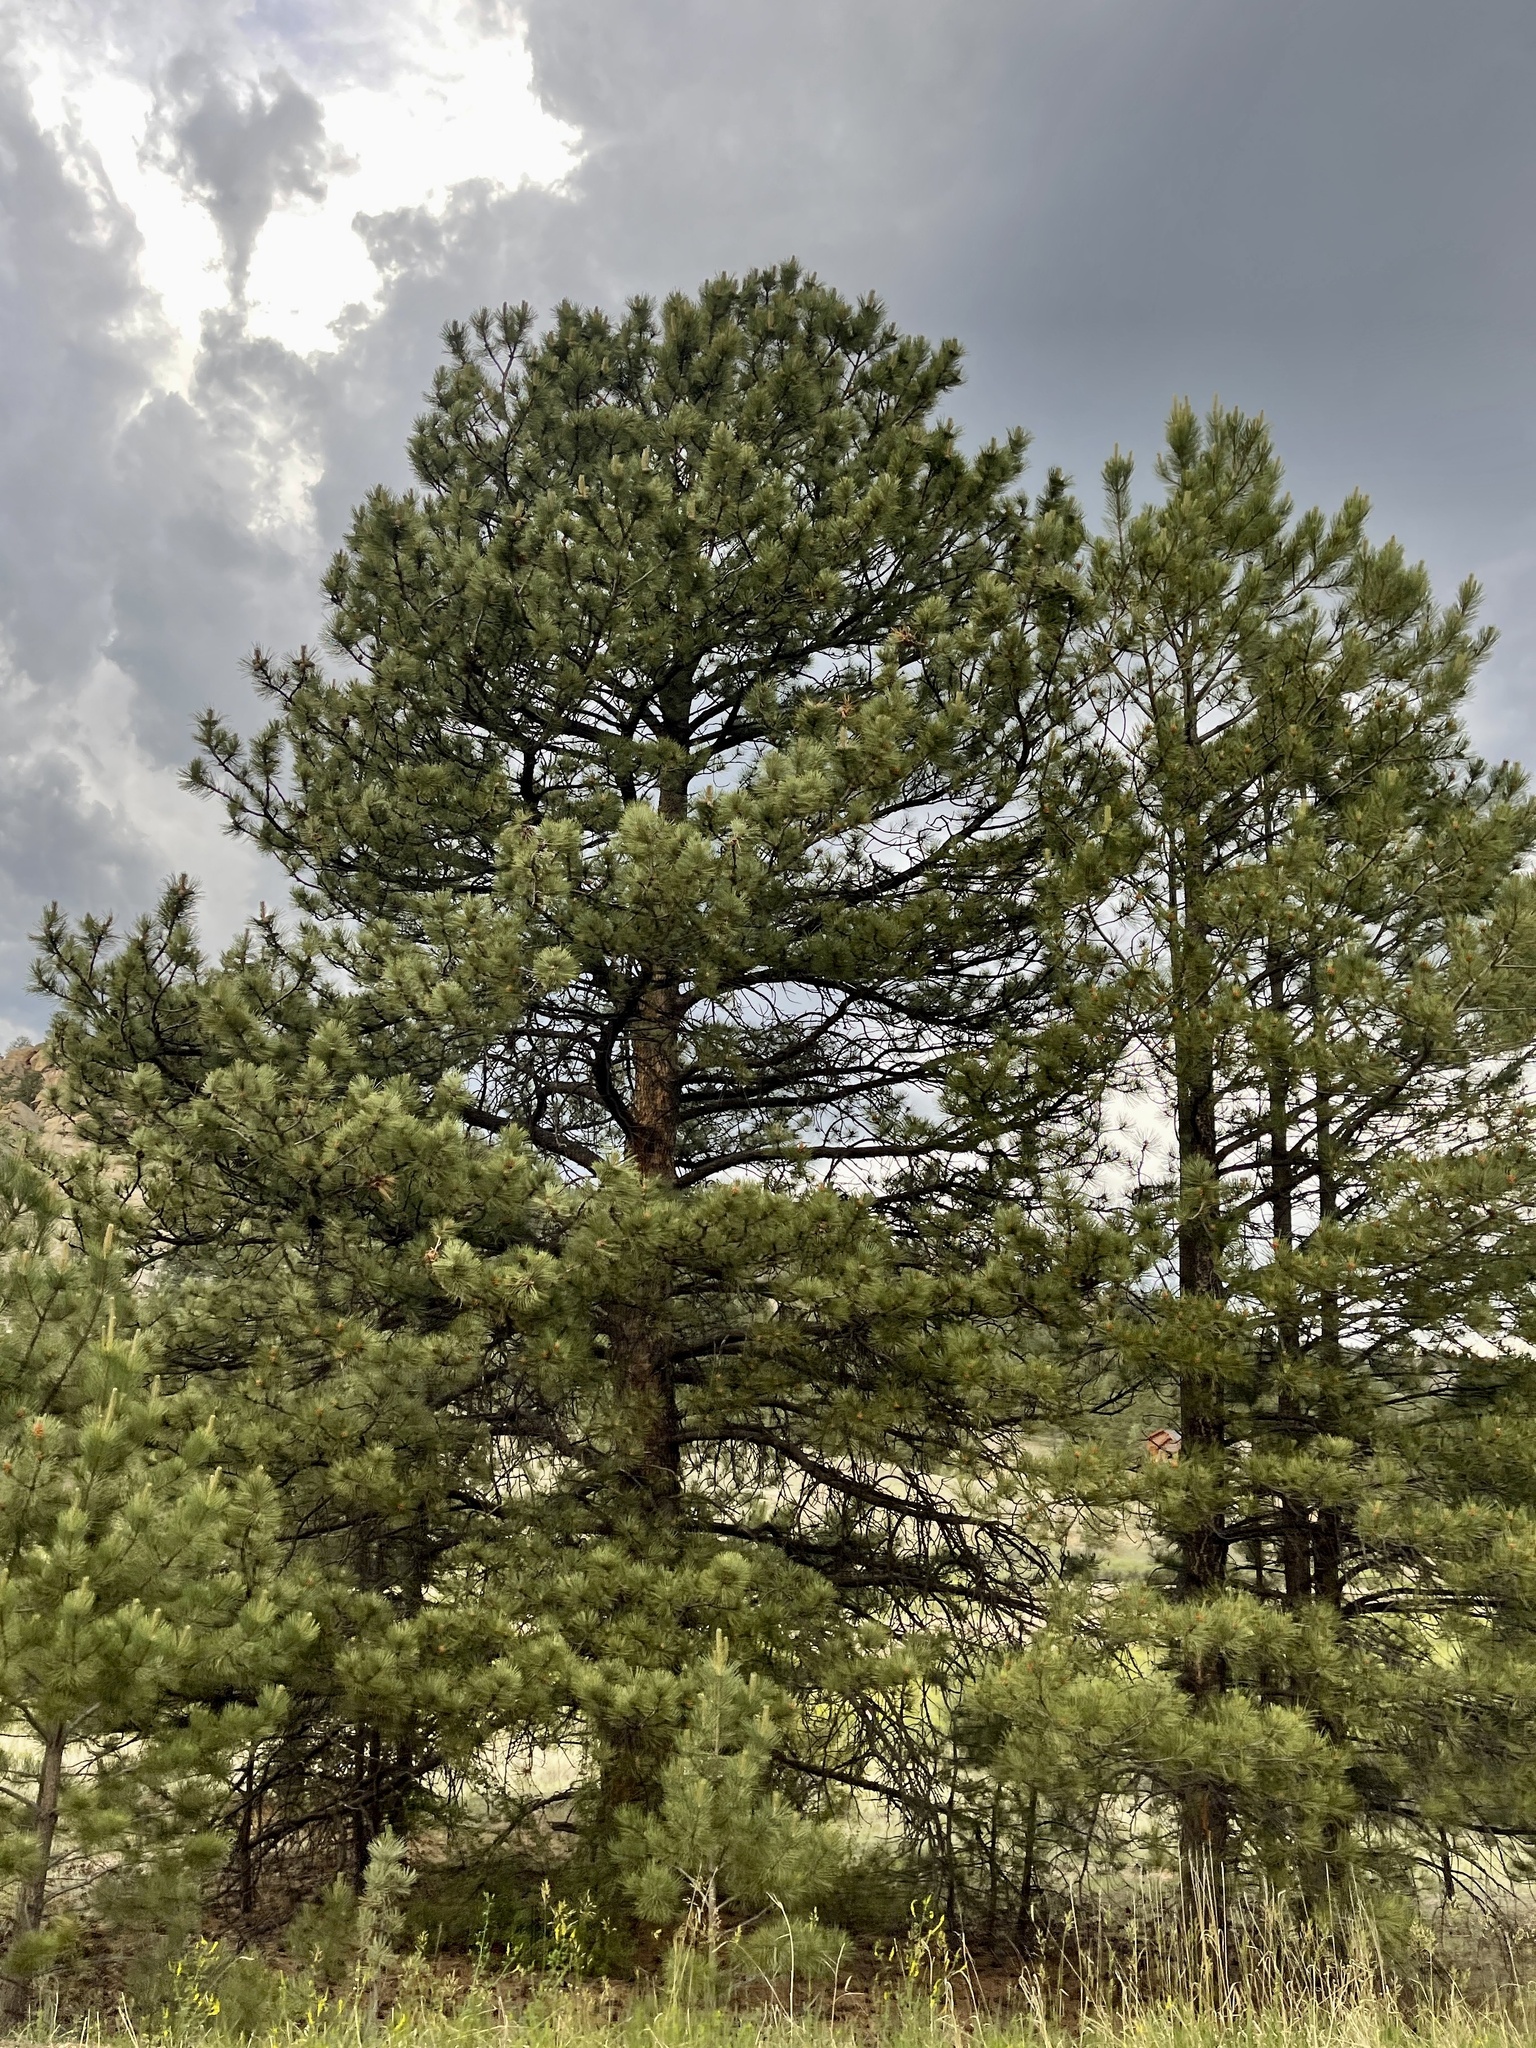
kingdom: Plantae
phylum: Tracheophyta
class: Pinopsida
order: Pinales
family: Pinaceae
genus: Pinus
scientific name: Pinus ponderosa
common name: Western yellow-pine
